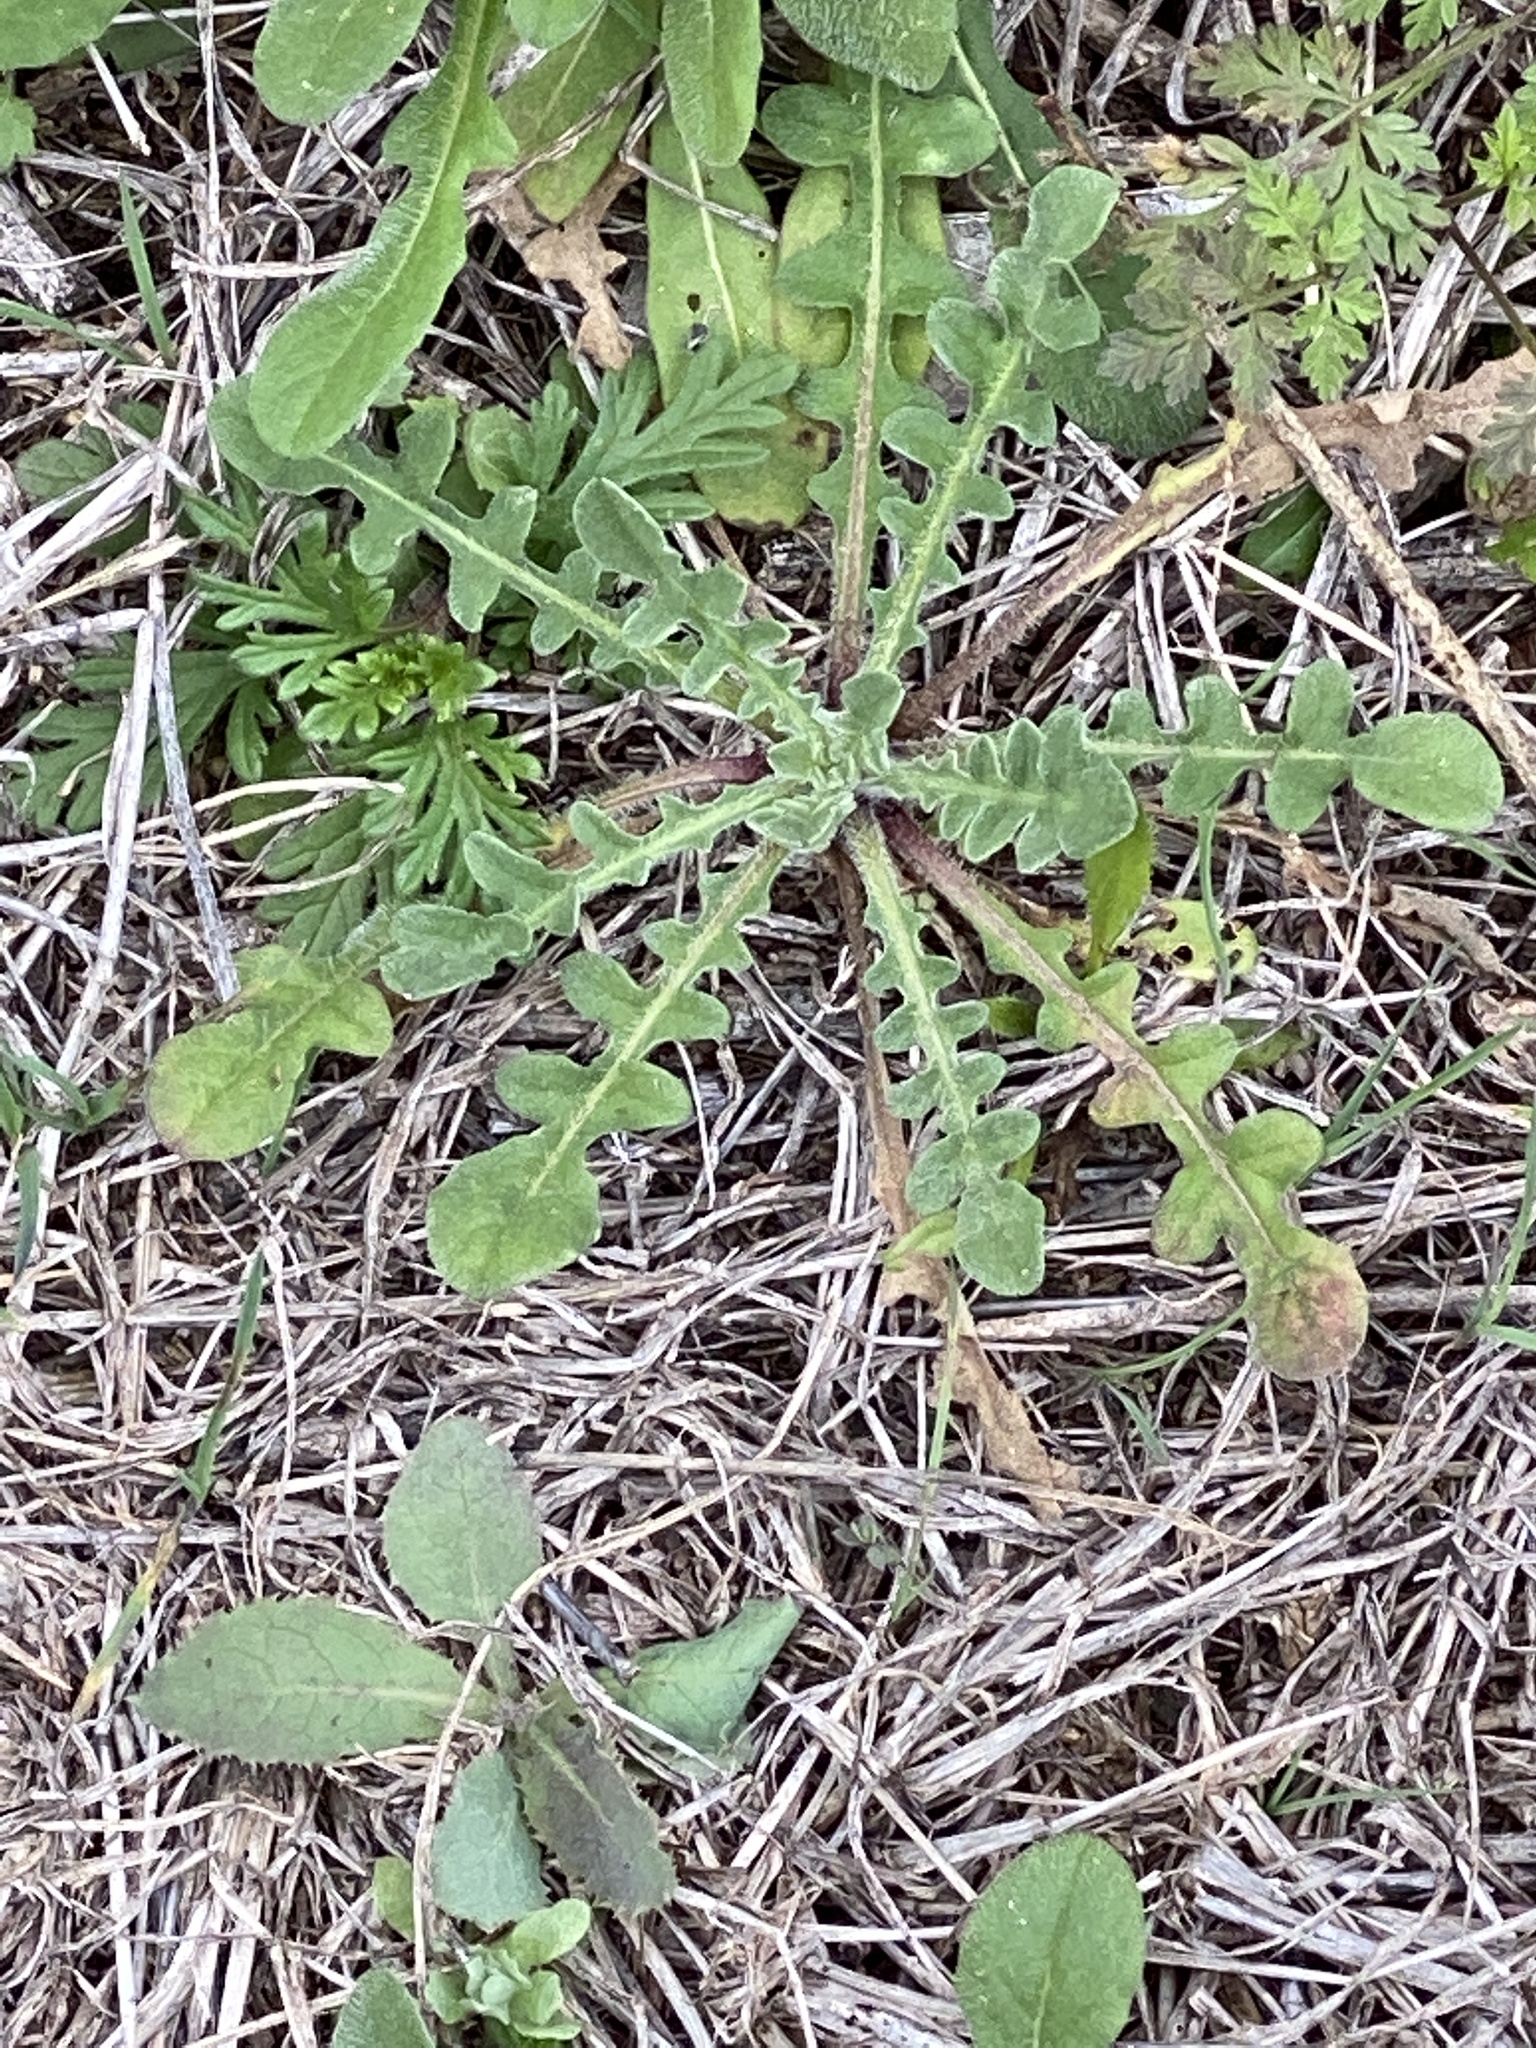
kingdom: Plantae
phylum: Tracheophyta
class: Magnoliopsida
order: Asterales
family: Asteraceae
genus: Centaurea
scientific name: Centaurea melitensis
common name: Maltese star-thistle
